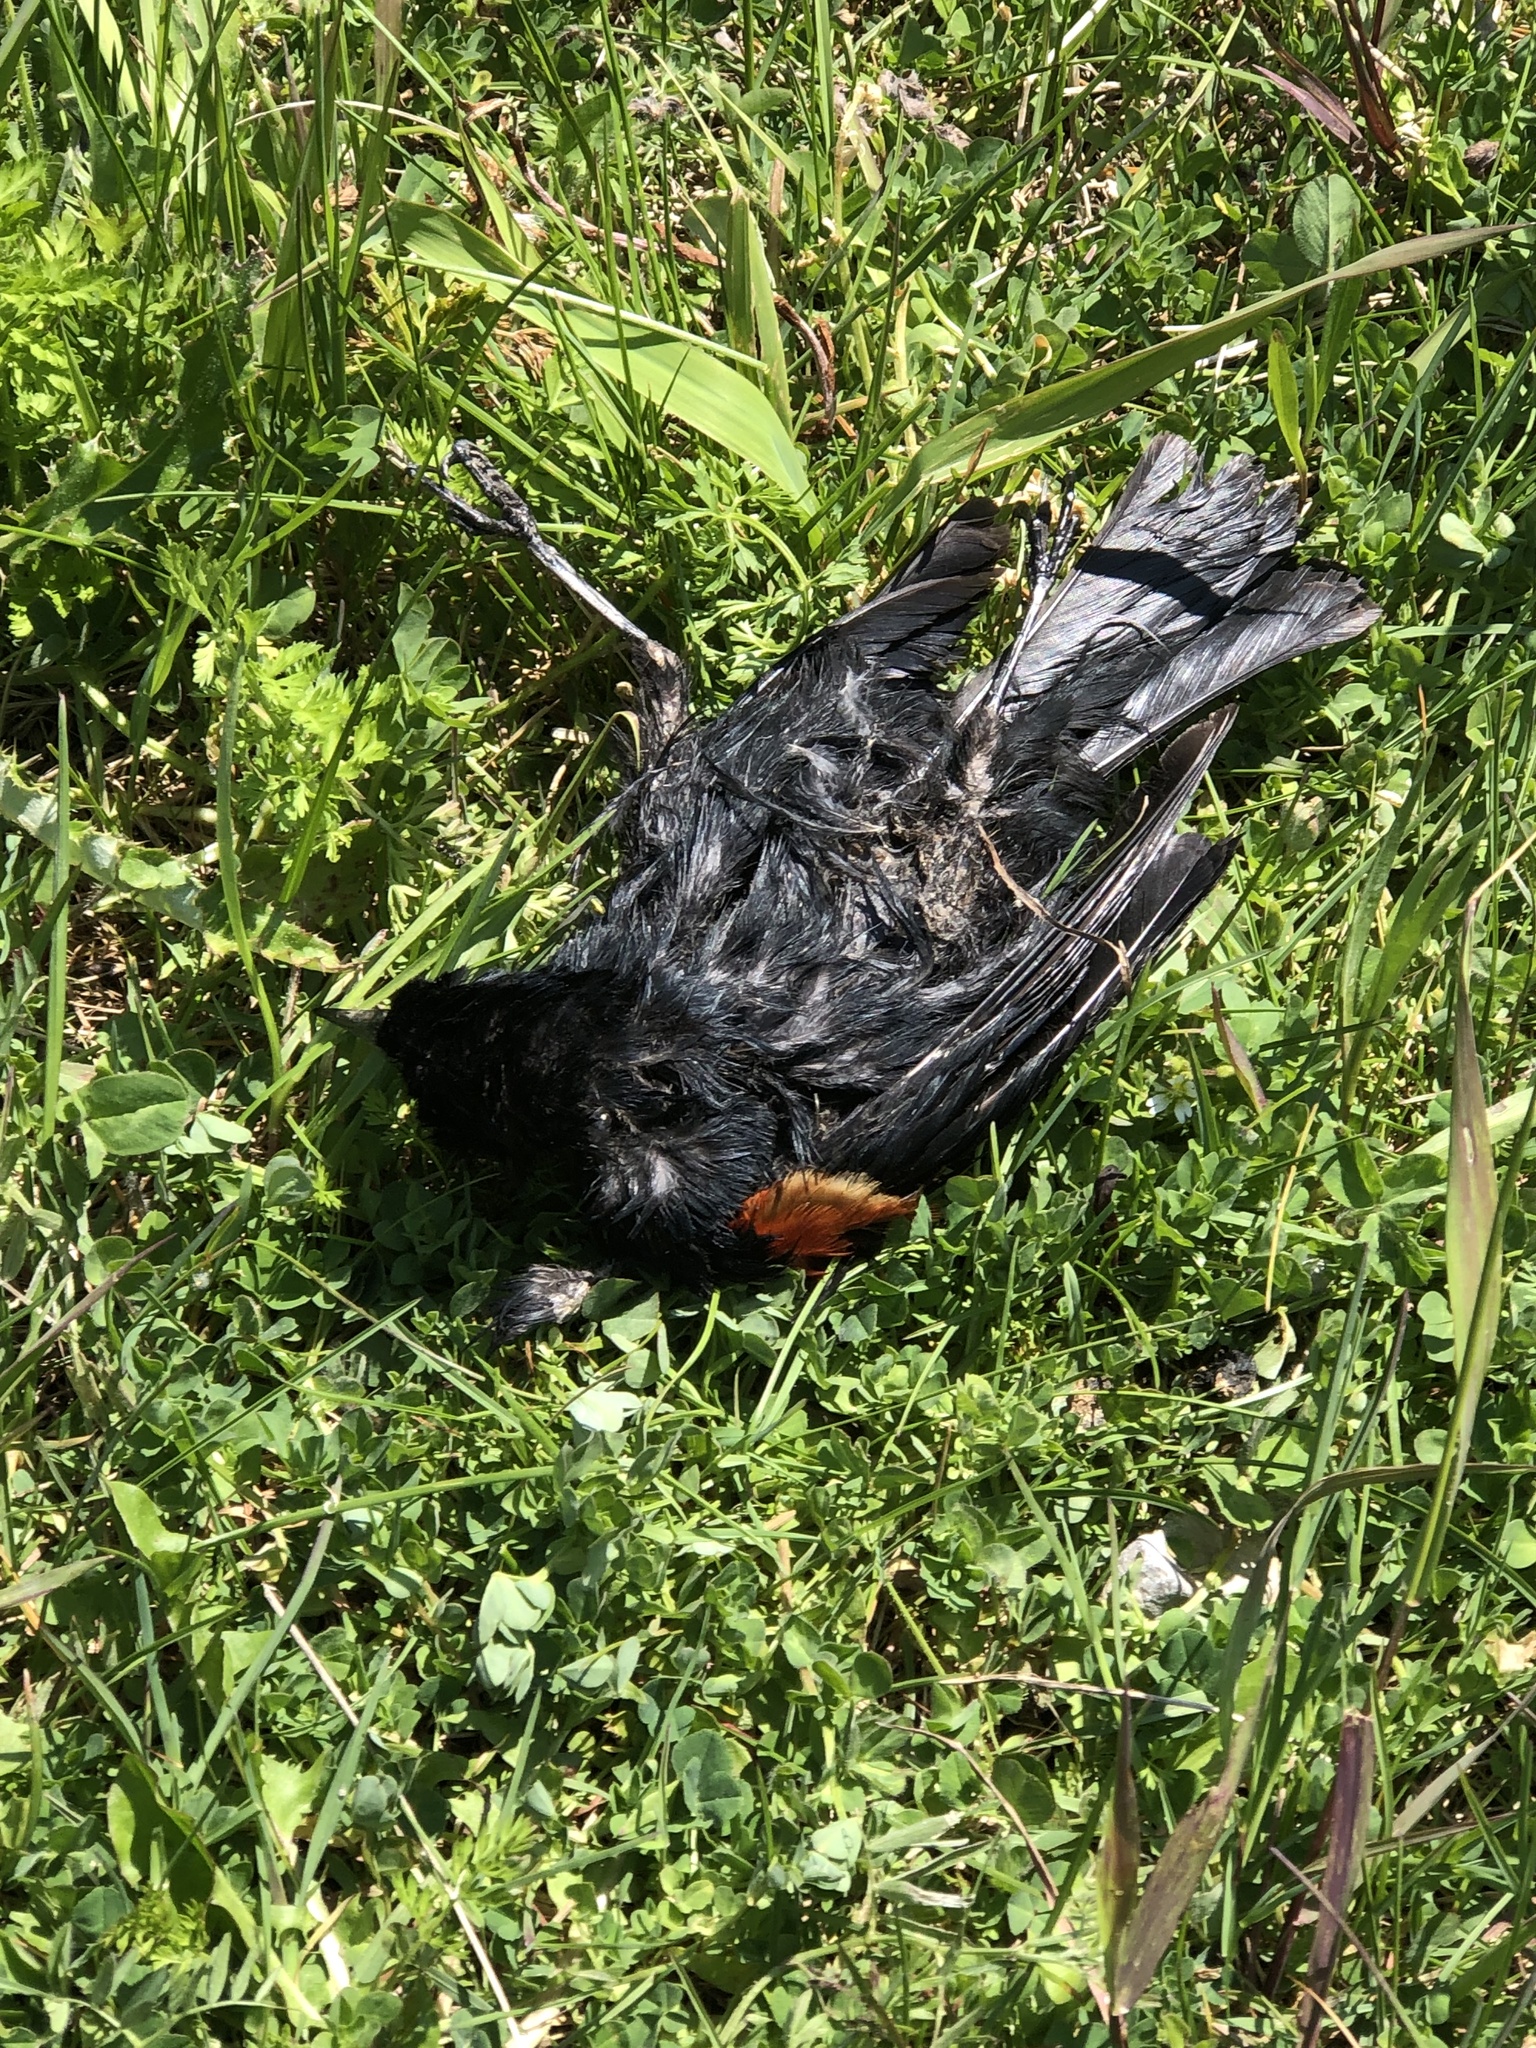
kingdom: Animalia
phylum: Chordata
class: Aves
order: Passeriformes
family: Icteridae
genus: Agelaius
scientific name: Agelaius phoeniceus
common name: Red-winged blackbird
